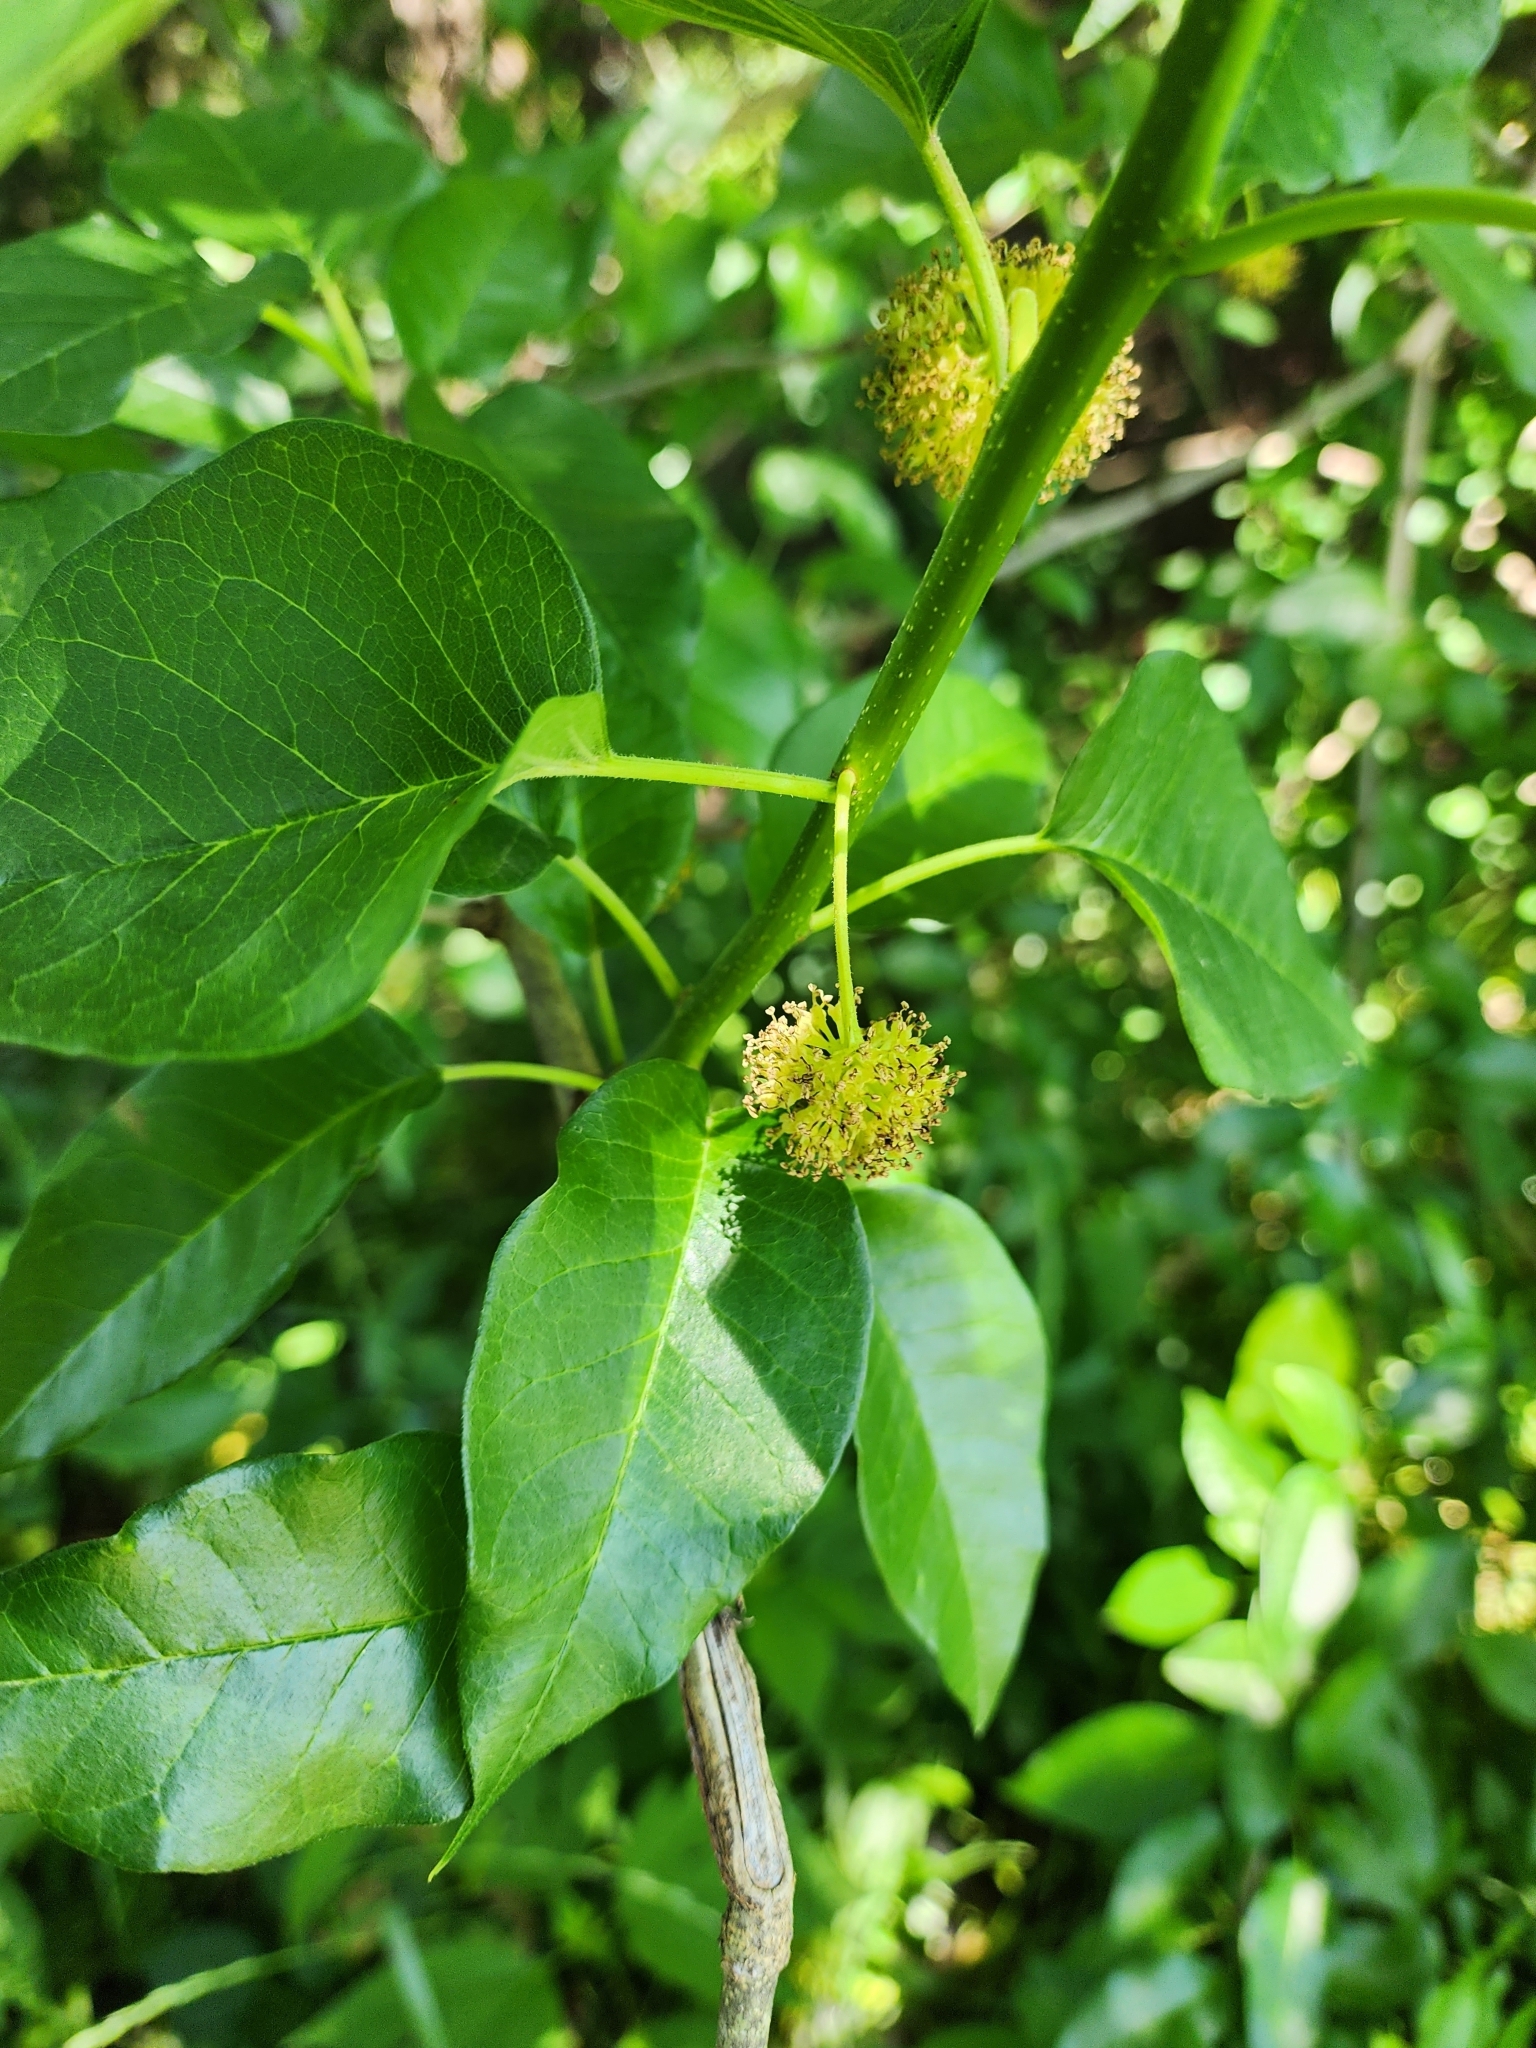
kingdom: Plantae
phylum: Tracheophyta
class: Magnoliopsida
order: Rosales
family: Moraceae
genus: Maclura
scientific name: Maclura pomifera
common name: Osage-orange
